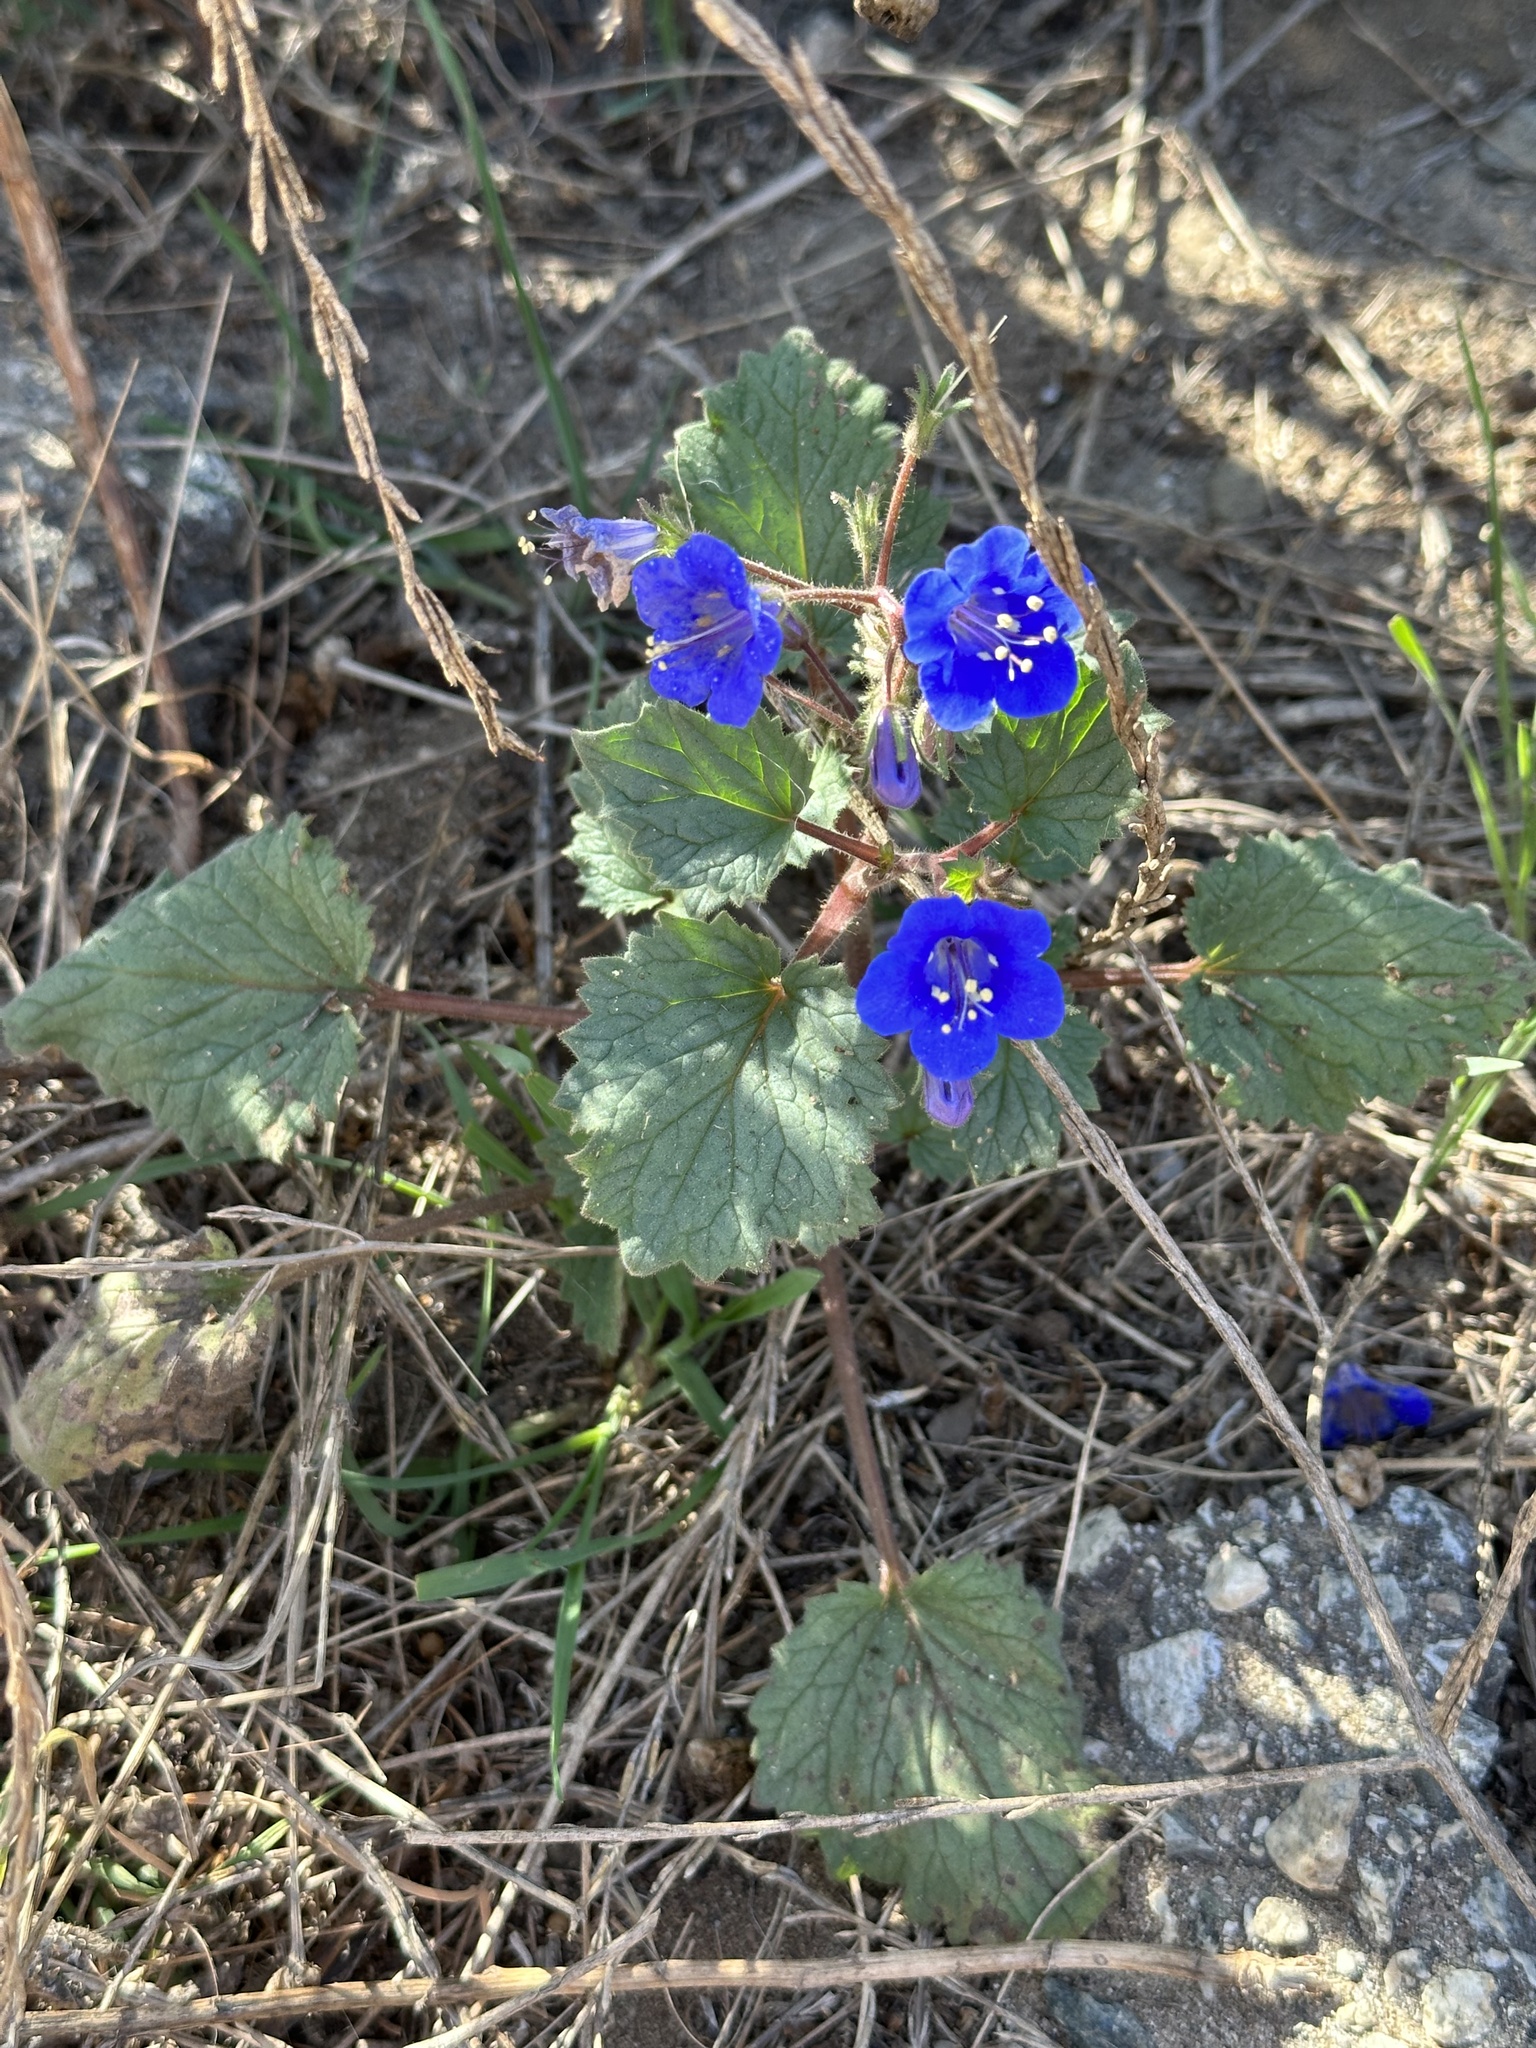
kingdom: Plantae
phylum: Tracheophyta
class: Magnoliopsida
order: Boraginales
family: Hydrophyllaceae
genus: Phacelia
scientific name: Phacelia campanularia
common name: California bluebell
